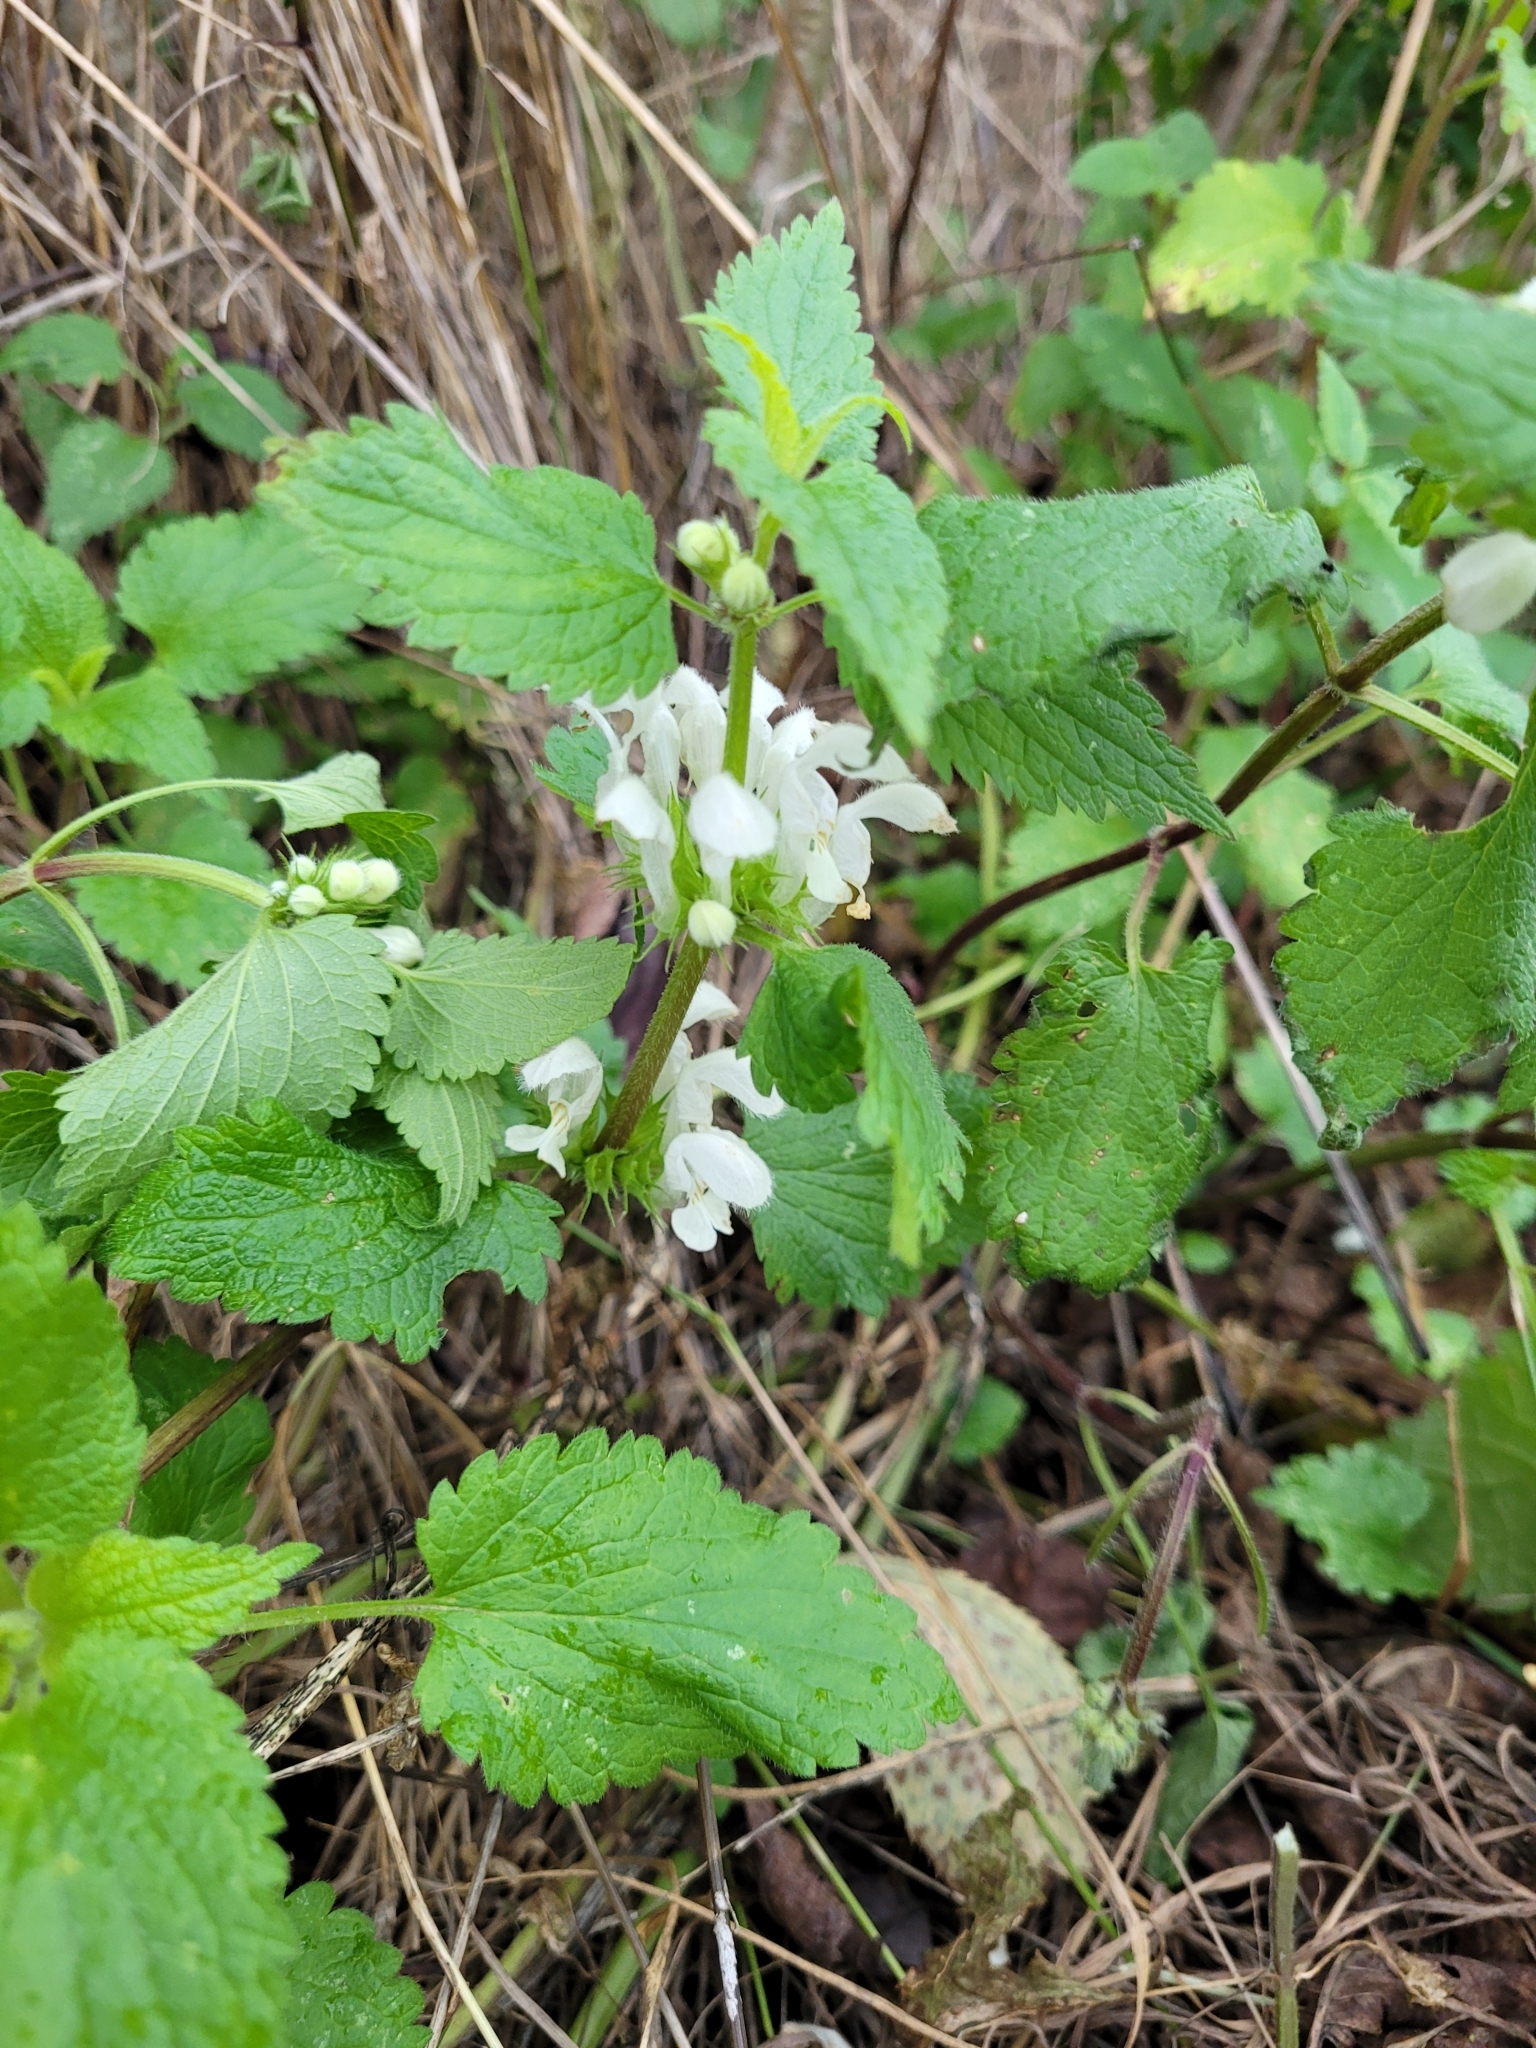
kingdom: Plantae
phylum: Tracheophyta
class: Magnoliopsida
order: Lamiales
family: Lamiaceae
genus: Lamium
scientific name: Lamium album
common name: White dead-nettle
